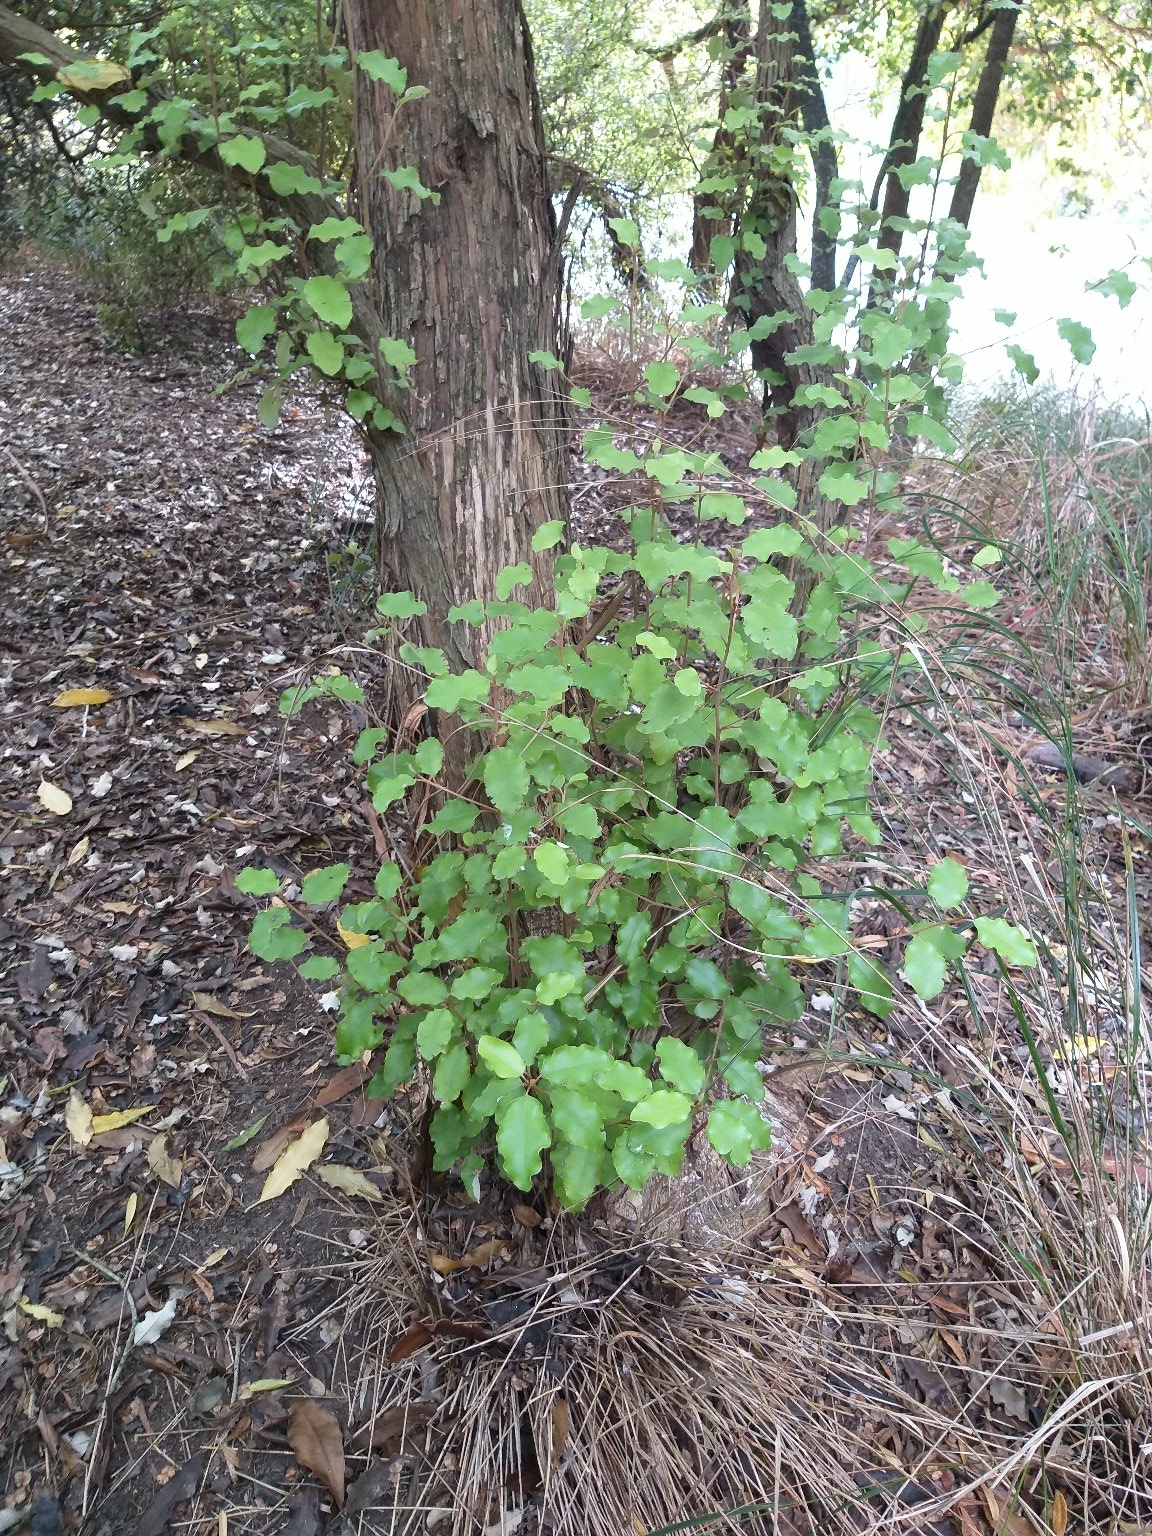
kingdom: Plantae
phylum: Tracheophyta
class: Magnoliopsida
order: Asterales
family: Asteraceae
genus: Olearia
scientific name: Olearia paniculata
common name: Akiraho
